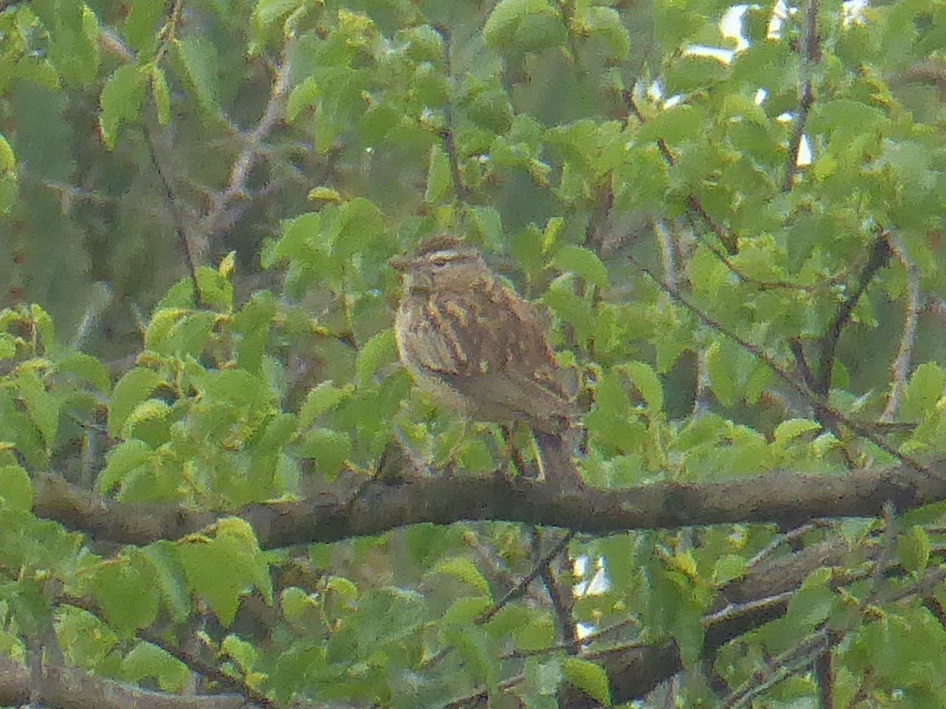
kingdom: Animalia
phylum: Chordata
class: Aves
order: Passeriformes
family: Alaudidae
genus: Calendulauda
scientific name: Calendulauda sabota
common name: Sabota lark
